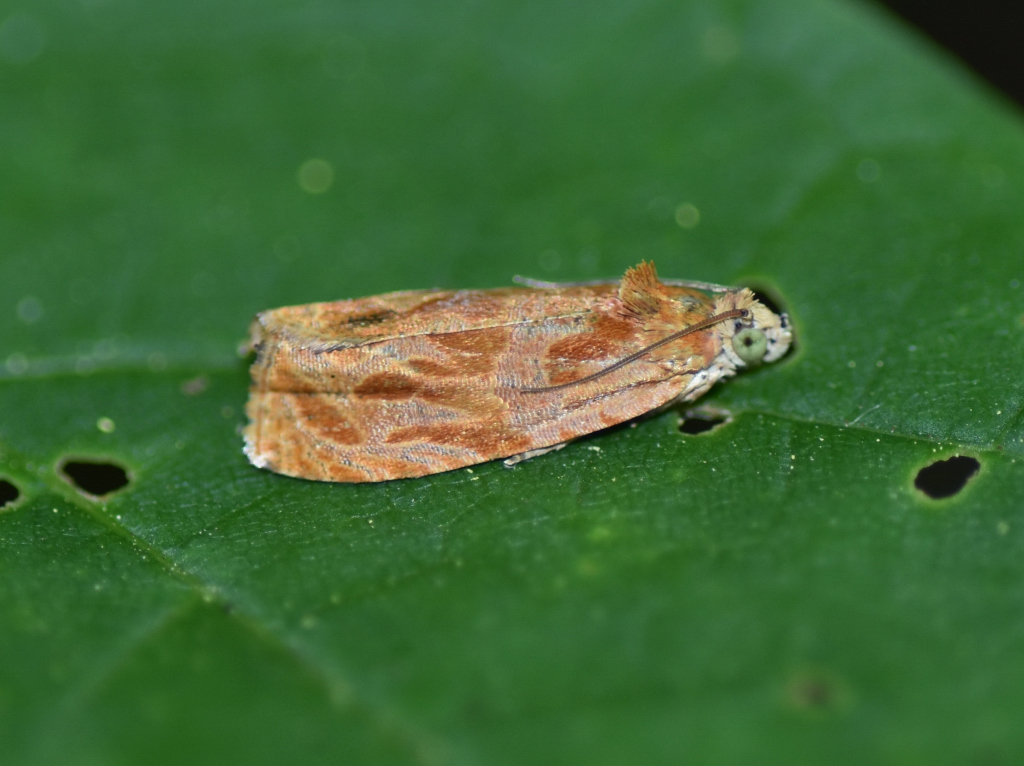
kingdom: Animalia
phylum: Arthropoda
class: Insecta
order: Lepidoptera
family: Tortricidae
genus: Olethreutes
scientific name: Olethreutes nitidana
